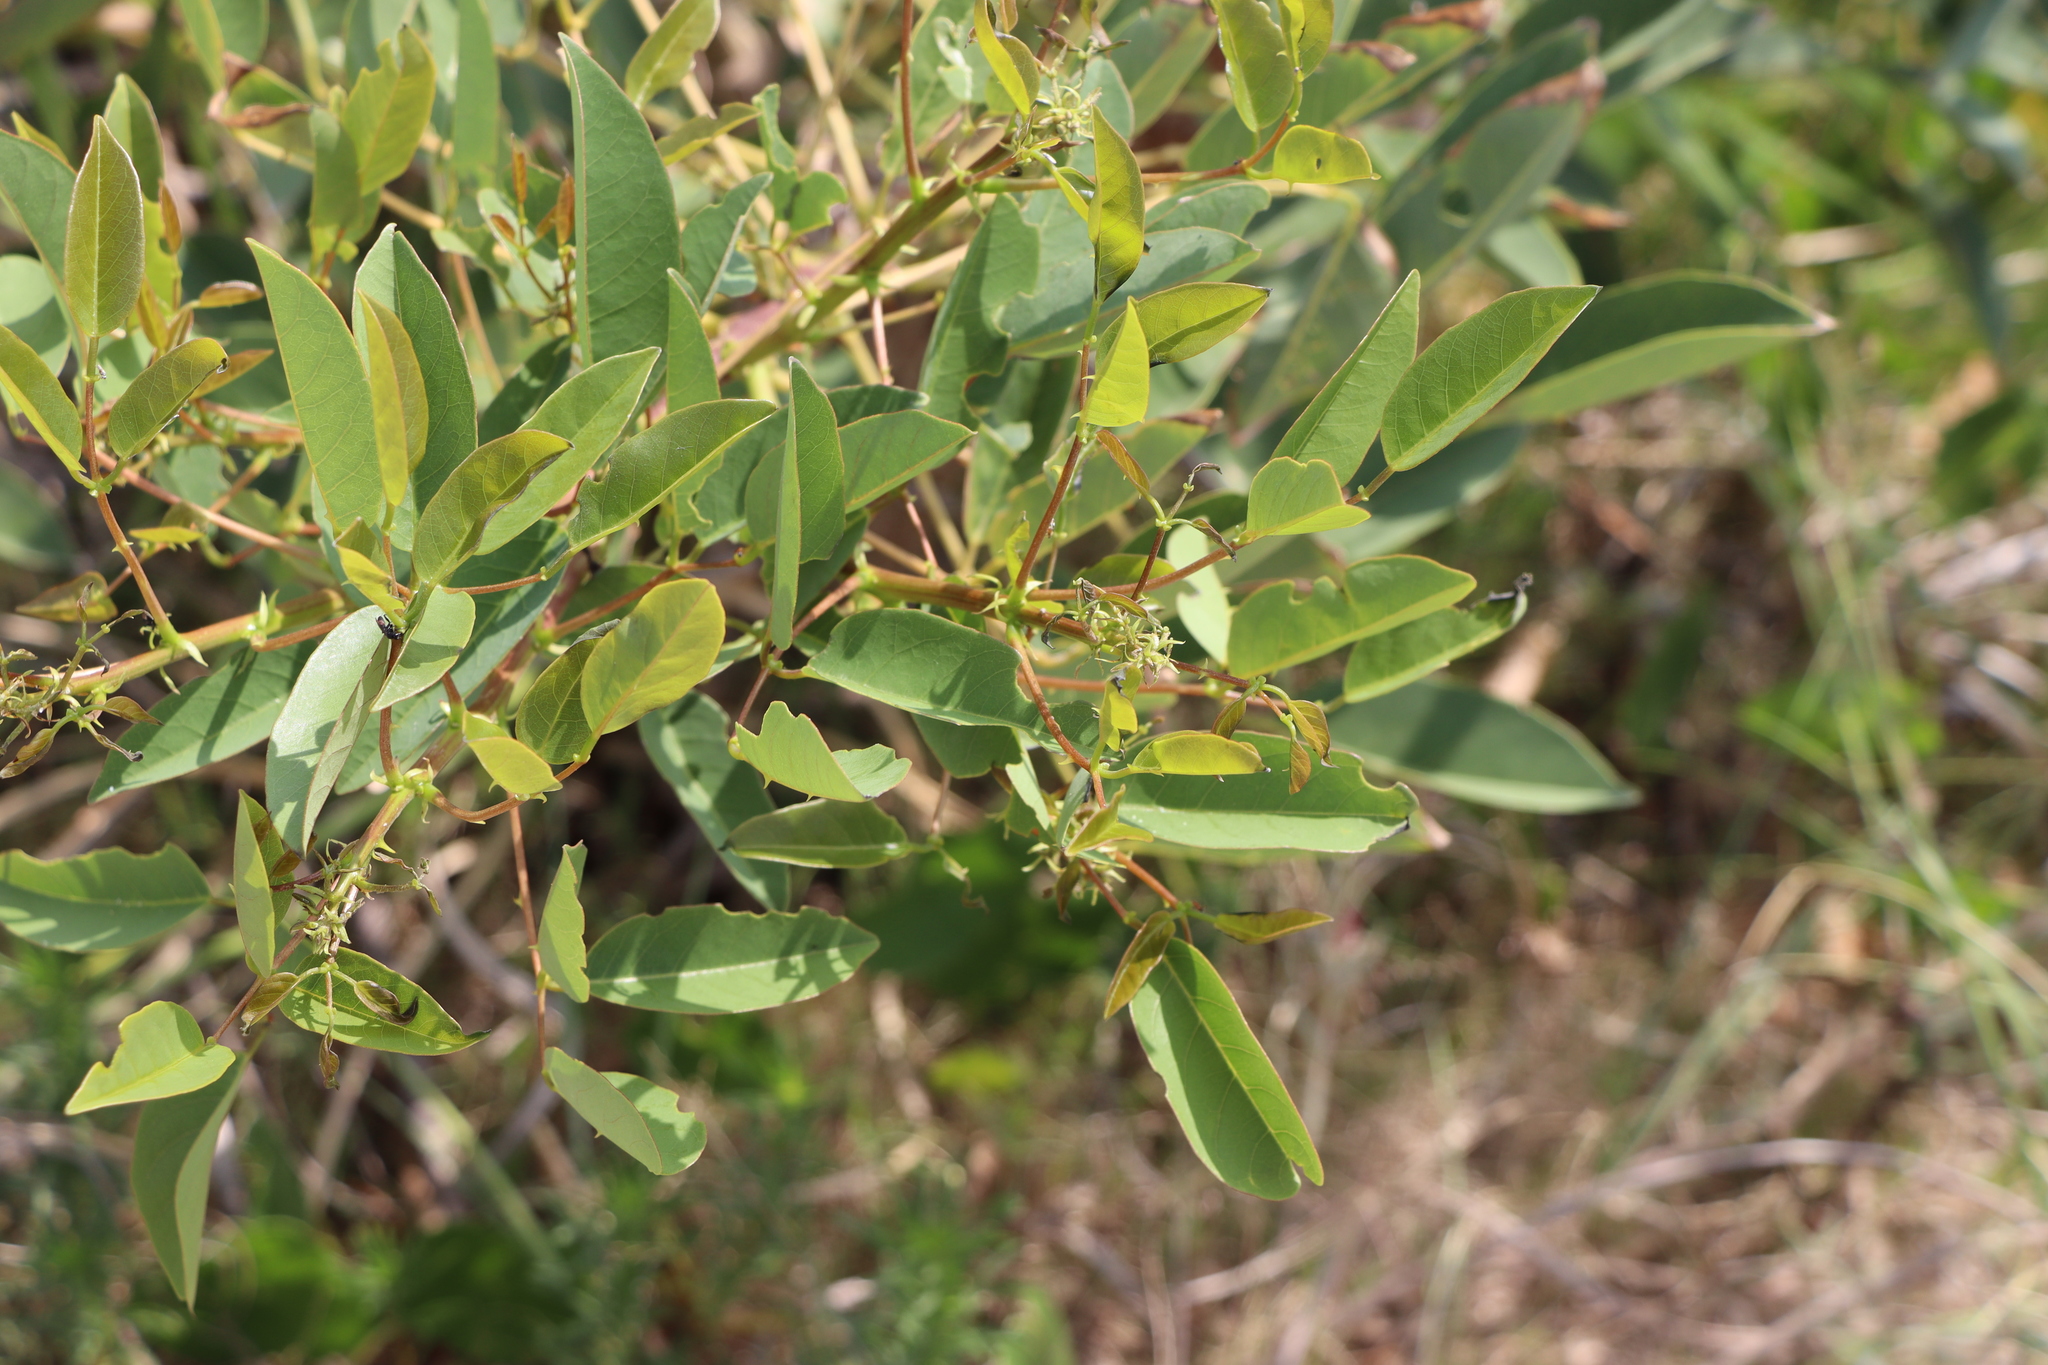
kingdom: Plantae
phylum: Tracheophyta
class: Magnoliopsida
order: Fabales
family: Fabaceae
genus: Erythrina
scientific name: Erythrina crista-galli
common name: Cockspur coral tree
